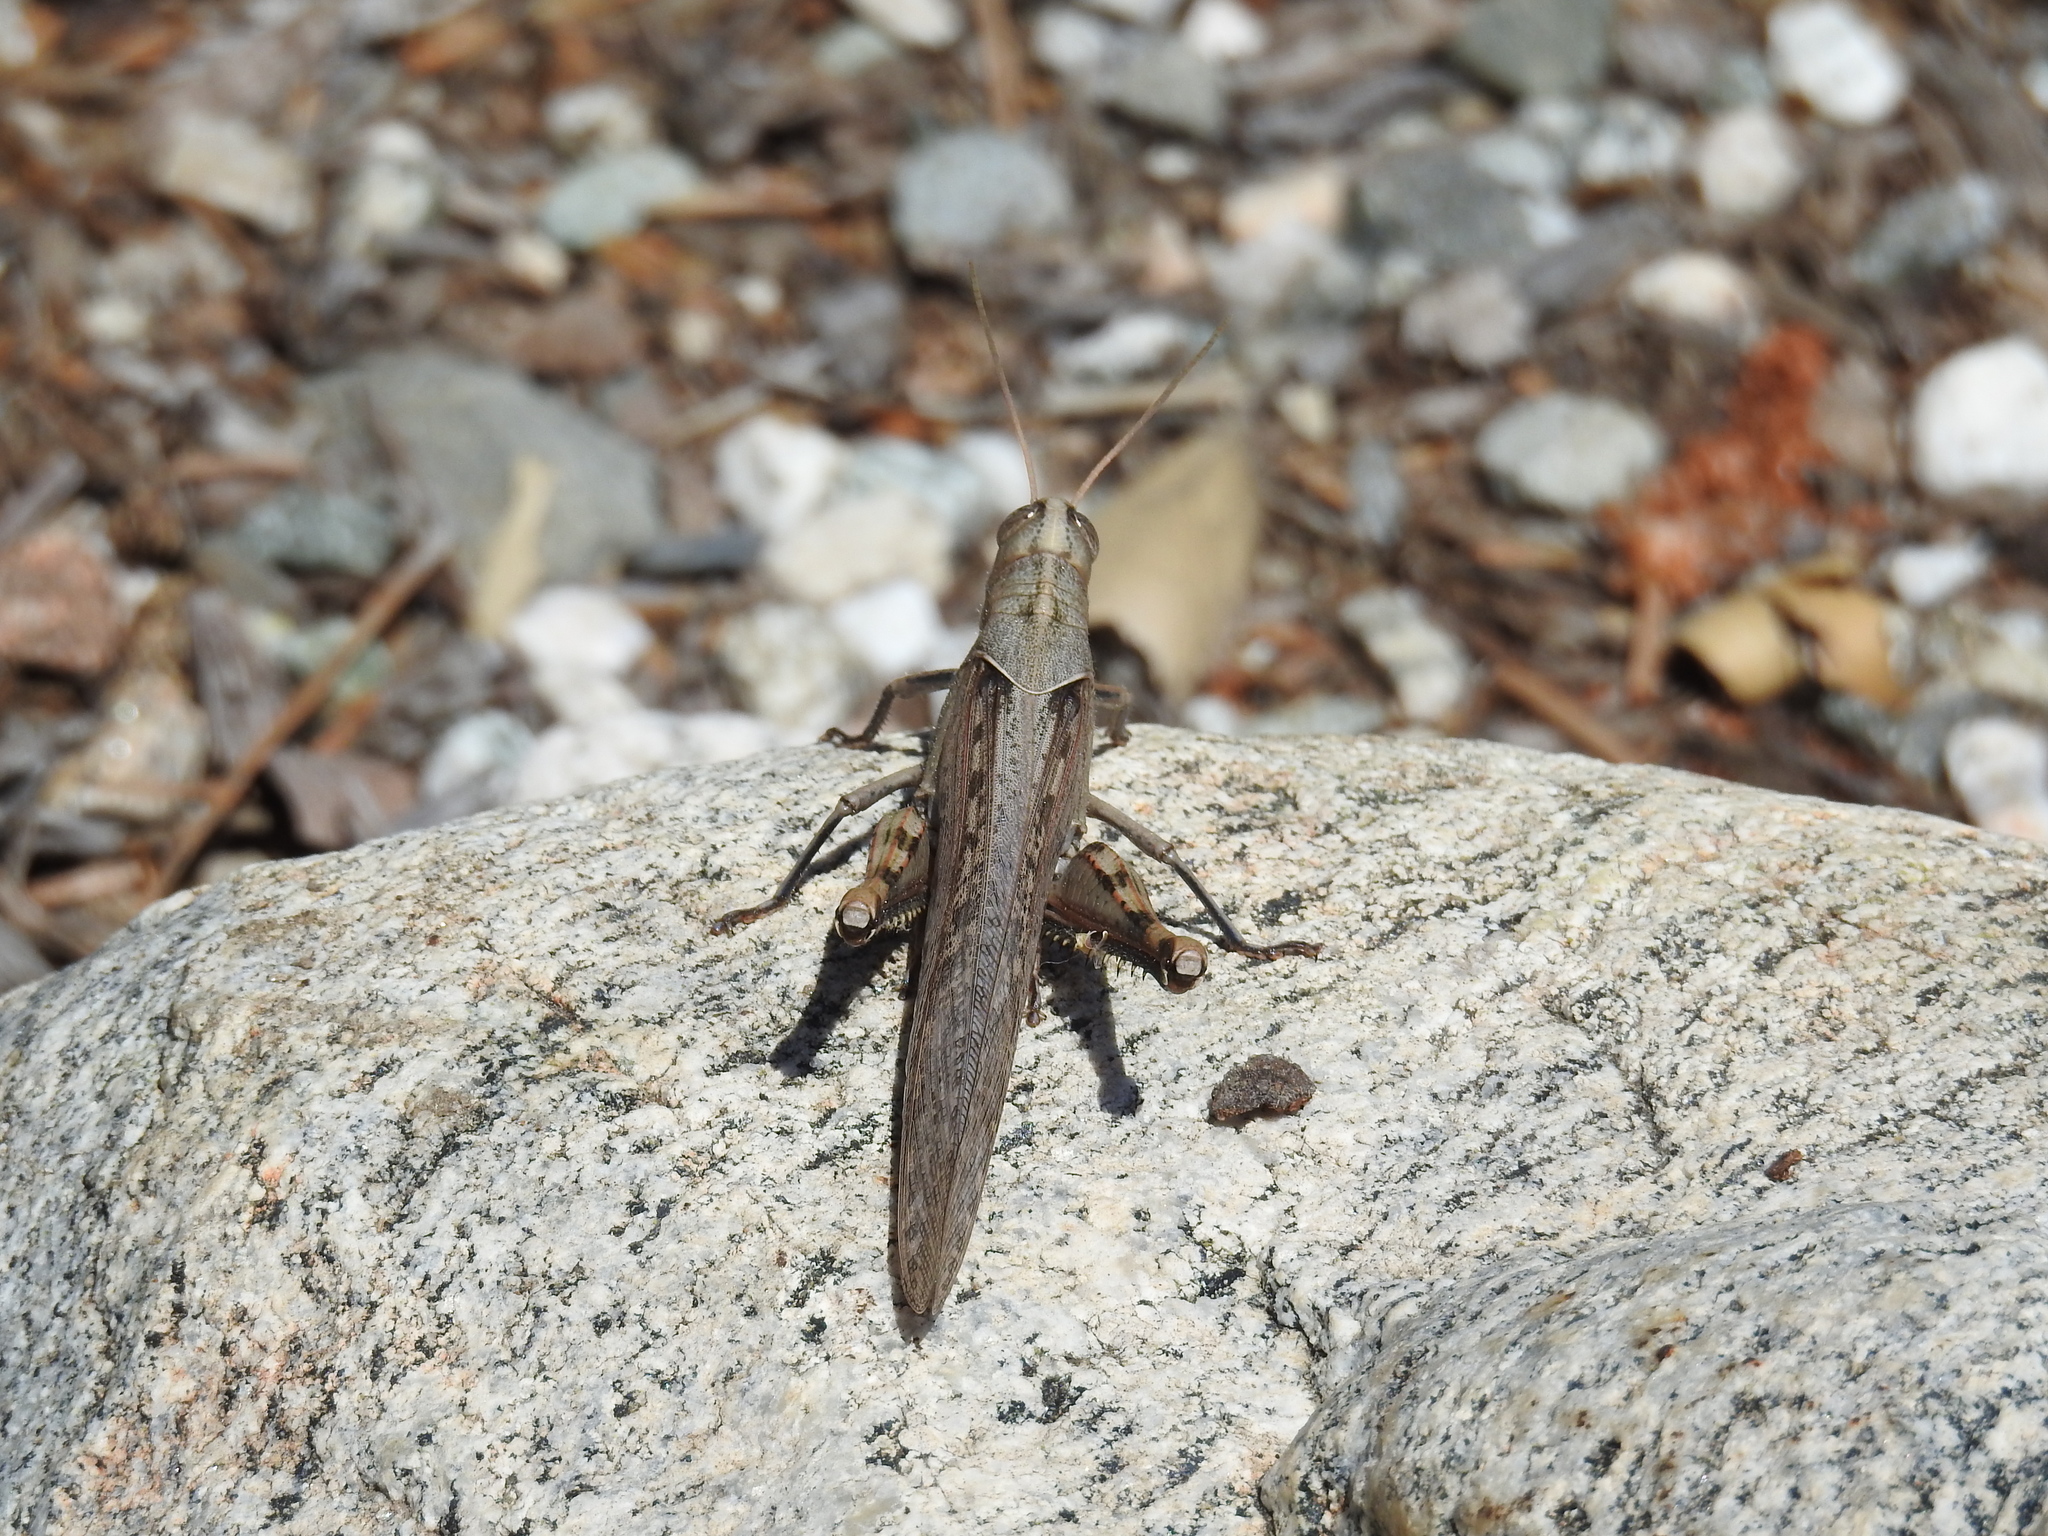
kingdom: Animalia
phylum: Arthropoda
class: Insecta
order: Orthoptera
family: Acrididae
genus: Schistocerca
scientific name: Schistocerca nitens
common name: Vagrant grasshopper
